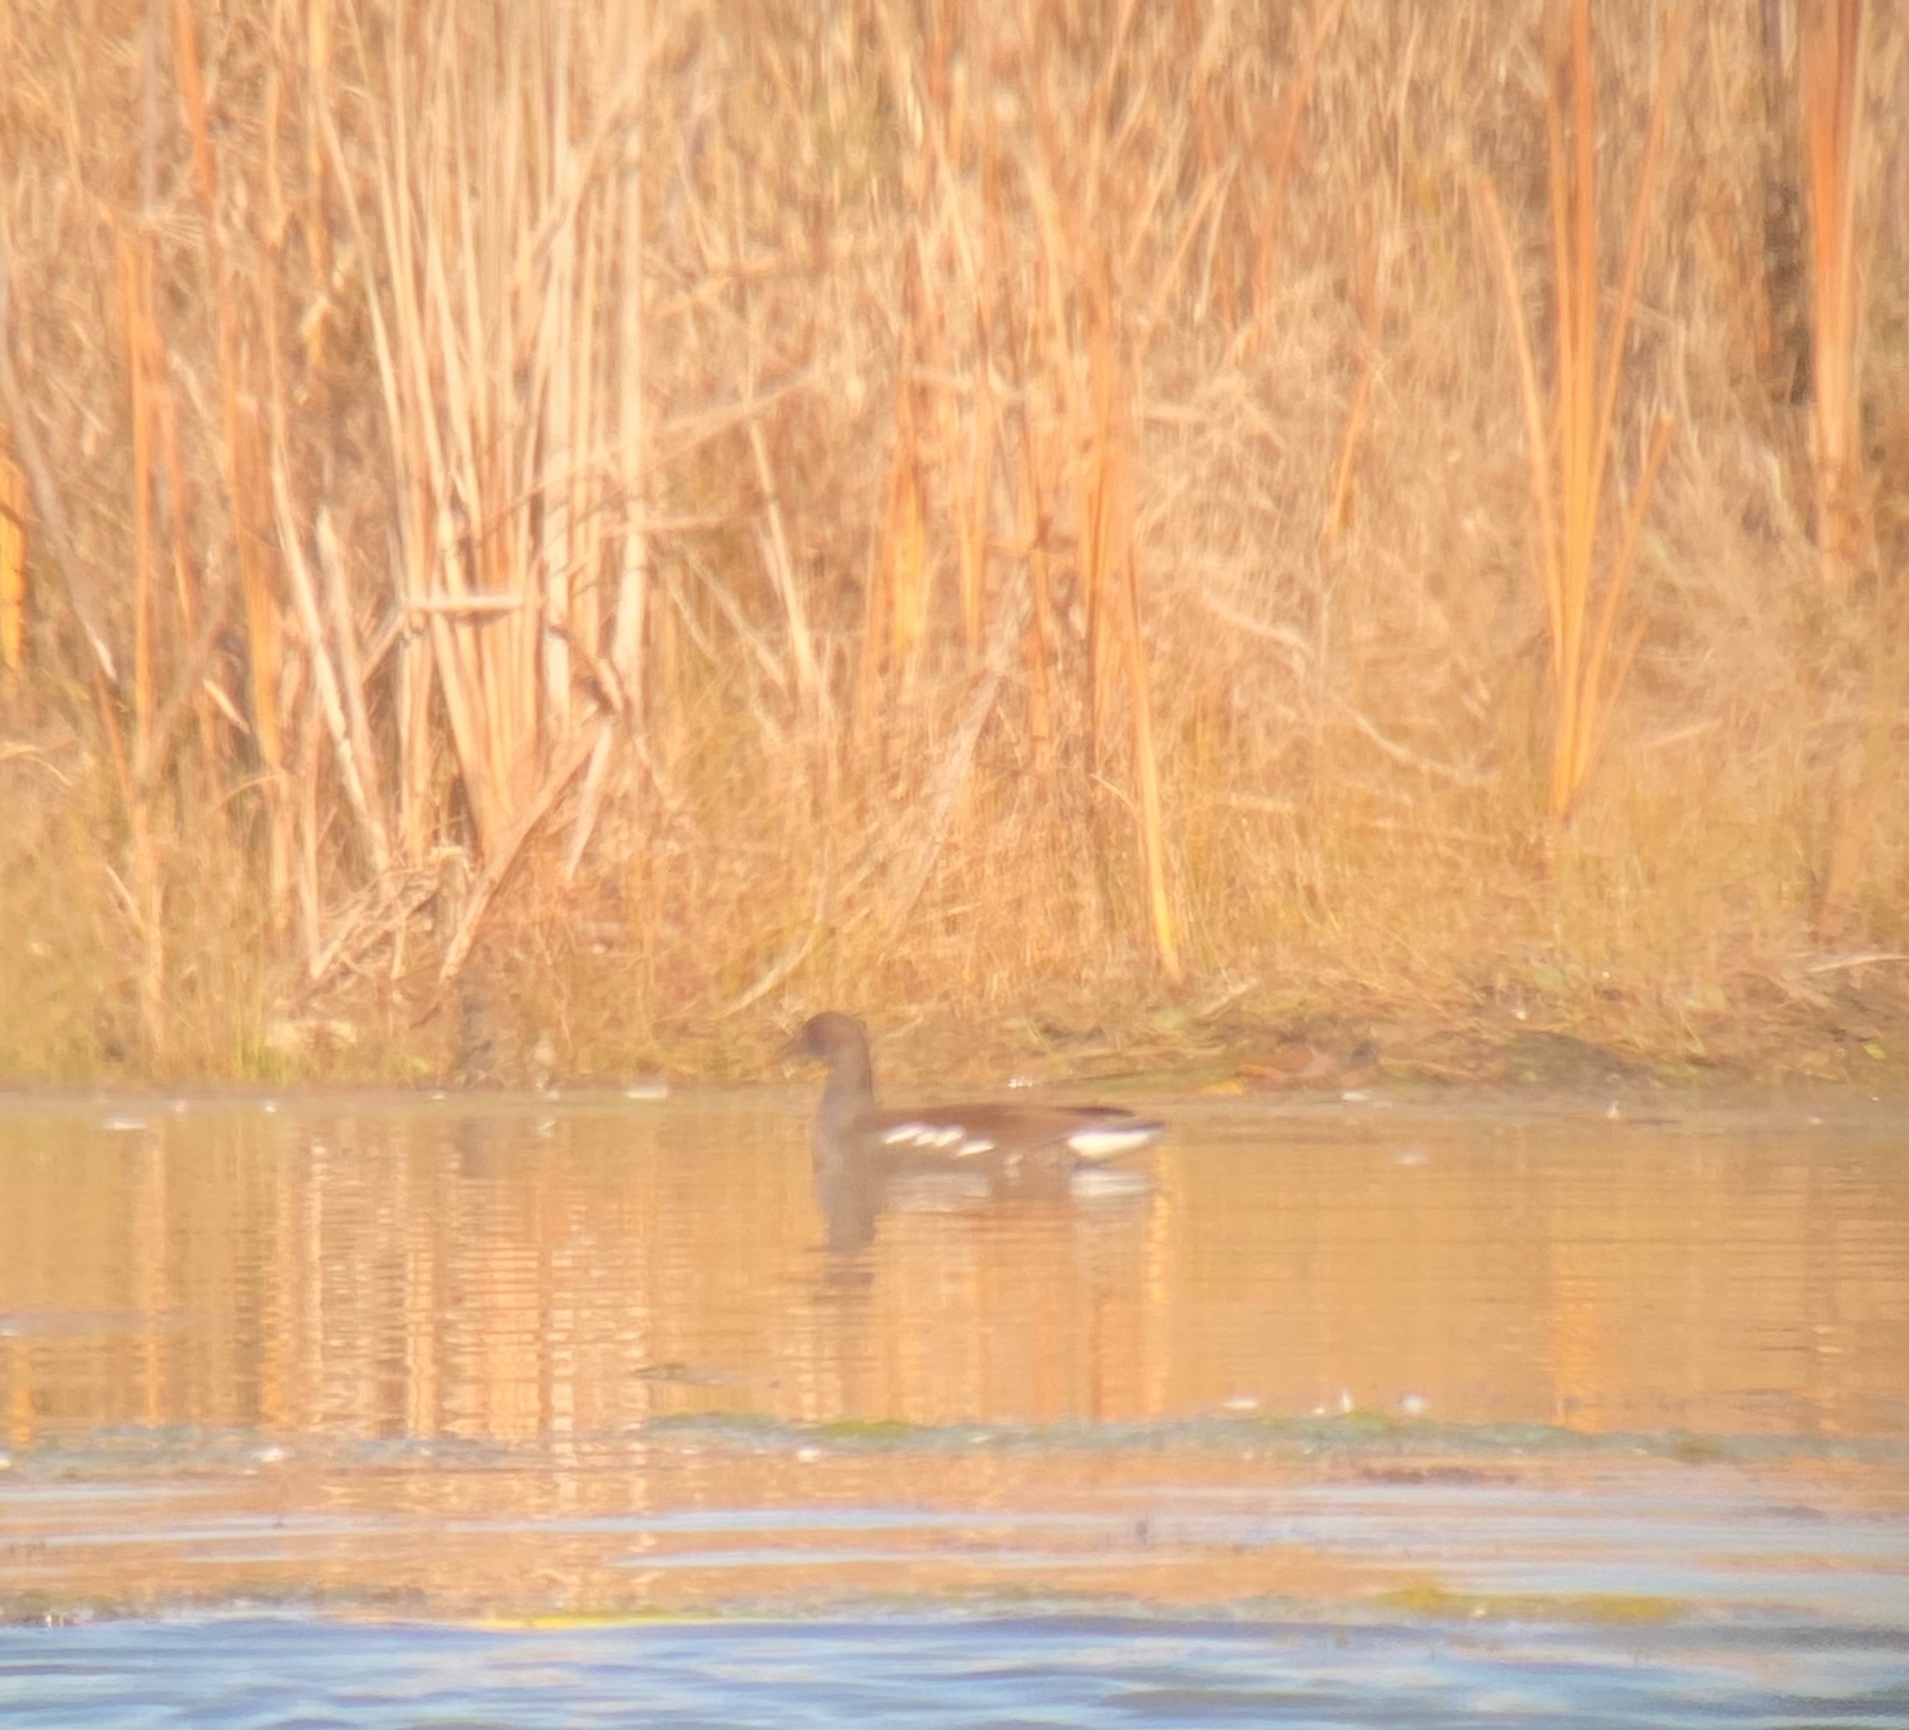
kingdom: Animalia
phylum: Chordata
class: Aves
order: Gruiformes
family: Rallidae
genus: Gallinula
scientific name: Gallinula chloropus
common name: Common moorhen
